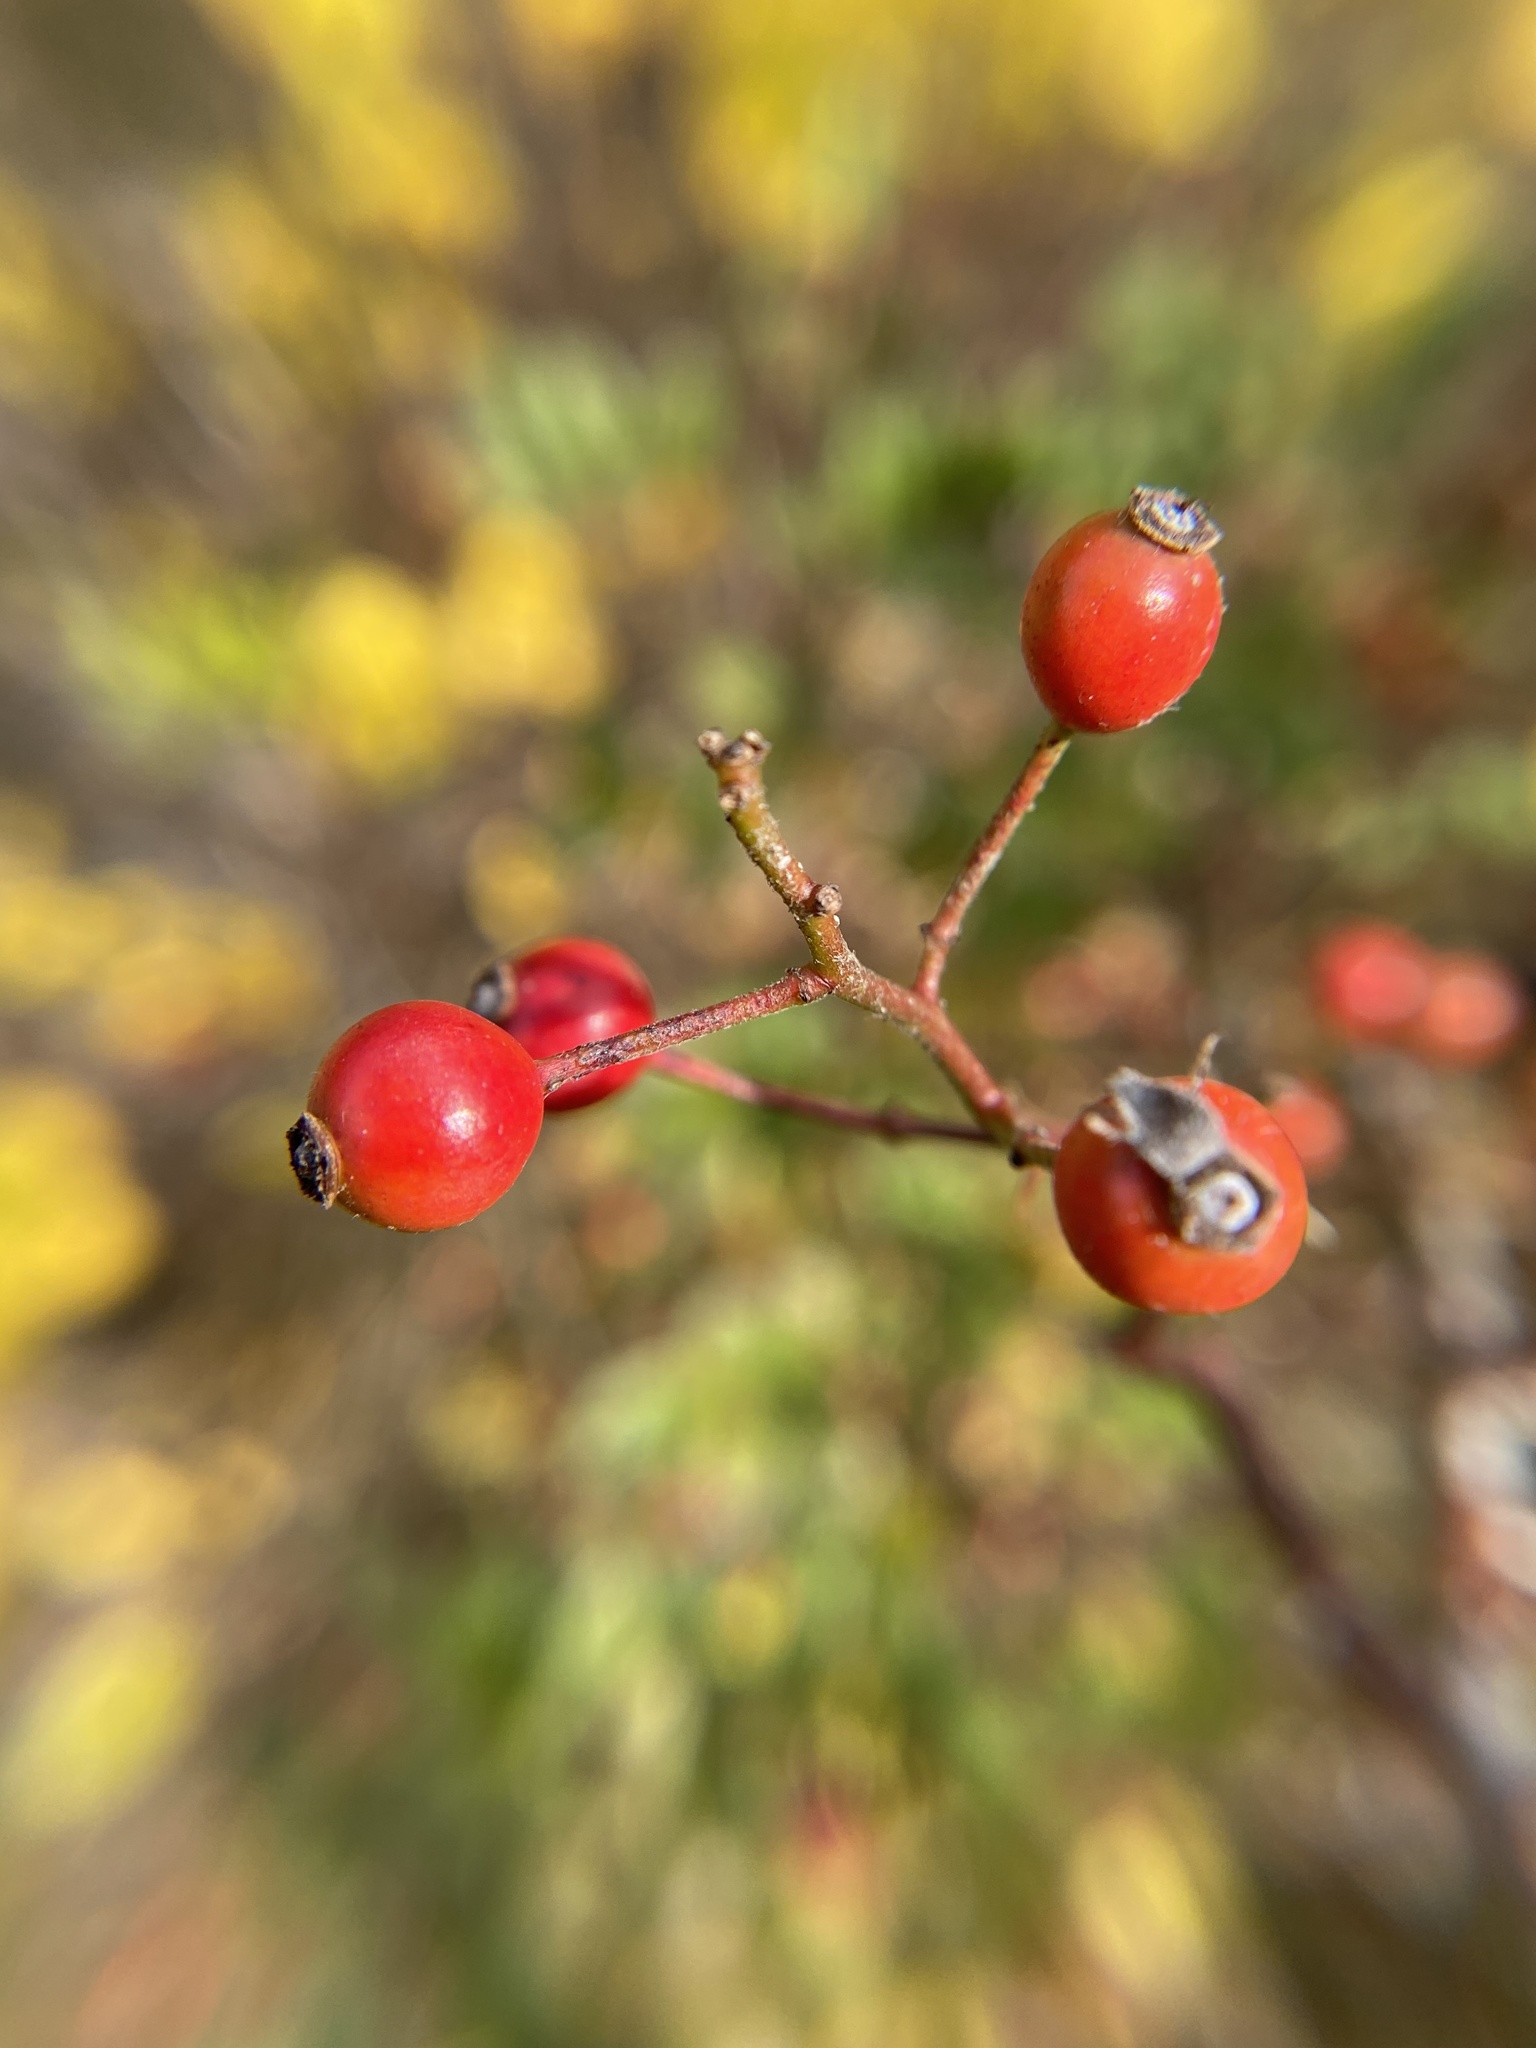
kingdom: Plantae
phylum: Tracheophyta
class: Magnoliopsida
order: Rosales
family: Rosaceae
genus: Rosa
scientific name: Rosa multiflora
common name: Multiflora rose
